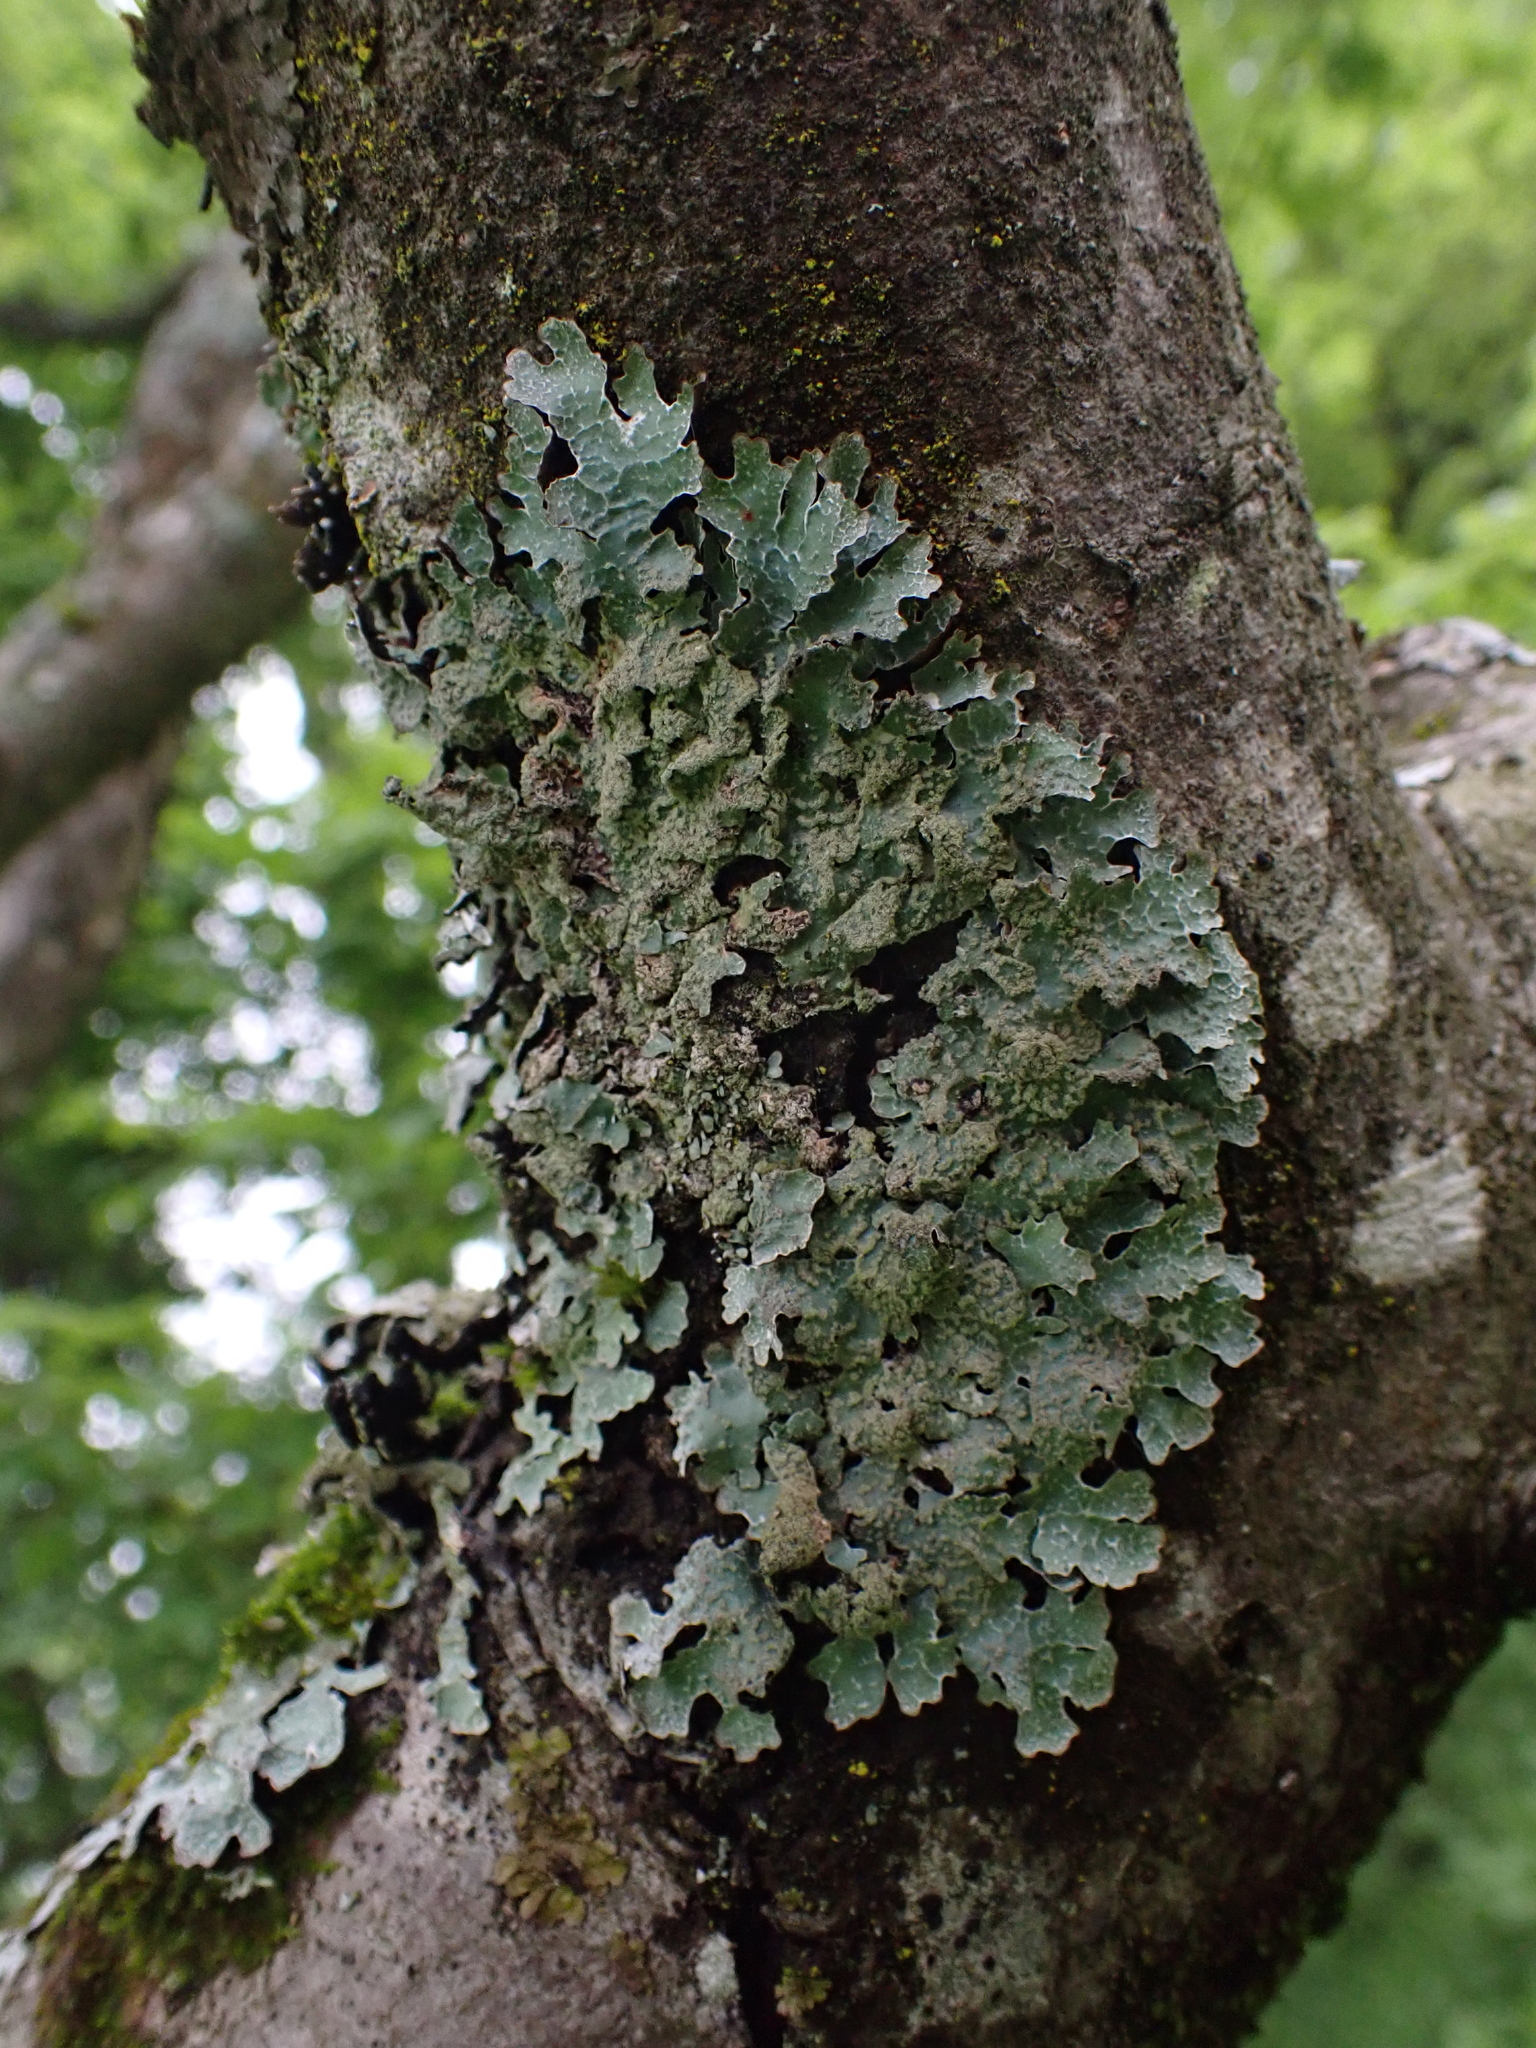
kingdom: Fungi
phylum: Ascomycota
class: Lecanoromycetes
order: Lecanorales
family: Parmeliaceae
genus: Parmelia
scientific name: Parmelia sulcata
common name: Netted shield lichen
